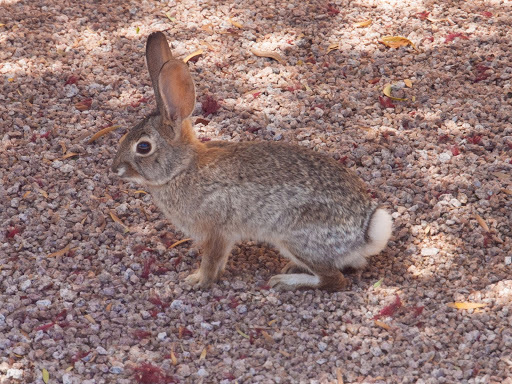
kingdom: Animalia
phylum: Chordata
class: Mammalia
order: Lagomorpha
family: Leporidae
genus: Sylvilagus
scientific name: Sylvilagus audubonii
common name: Desert cottontail
